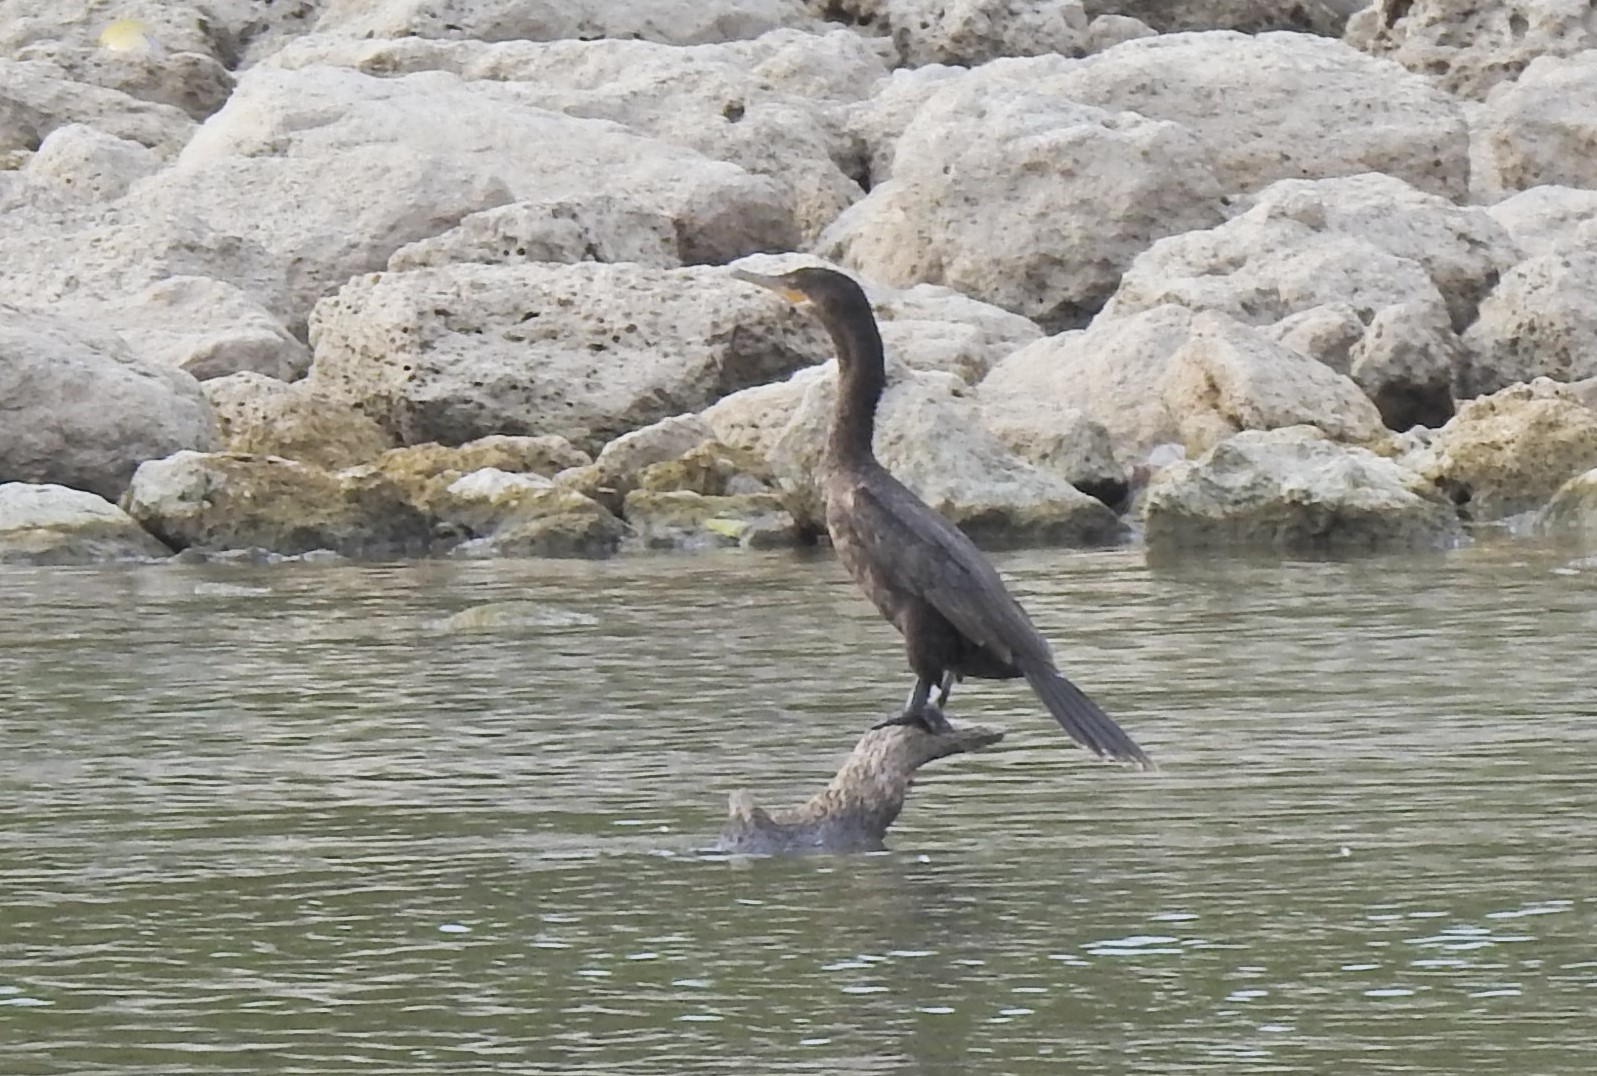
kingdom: Animalia
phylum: Chordata
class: Aves
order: Suliformes
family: Phalacrocoracidae
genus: Phalacrocorax
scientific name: Phalacrocorax brasilianus
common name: Neotropic cormorant
